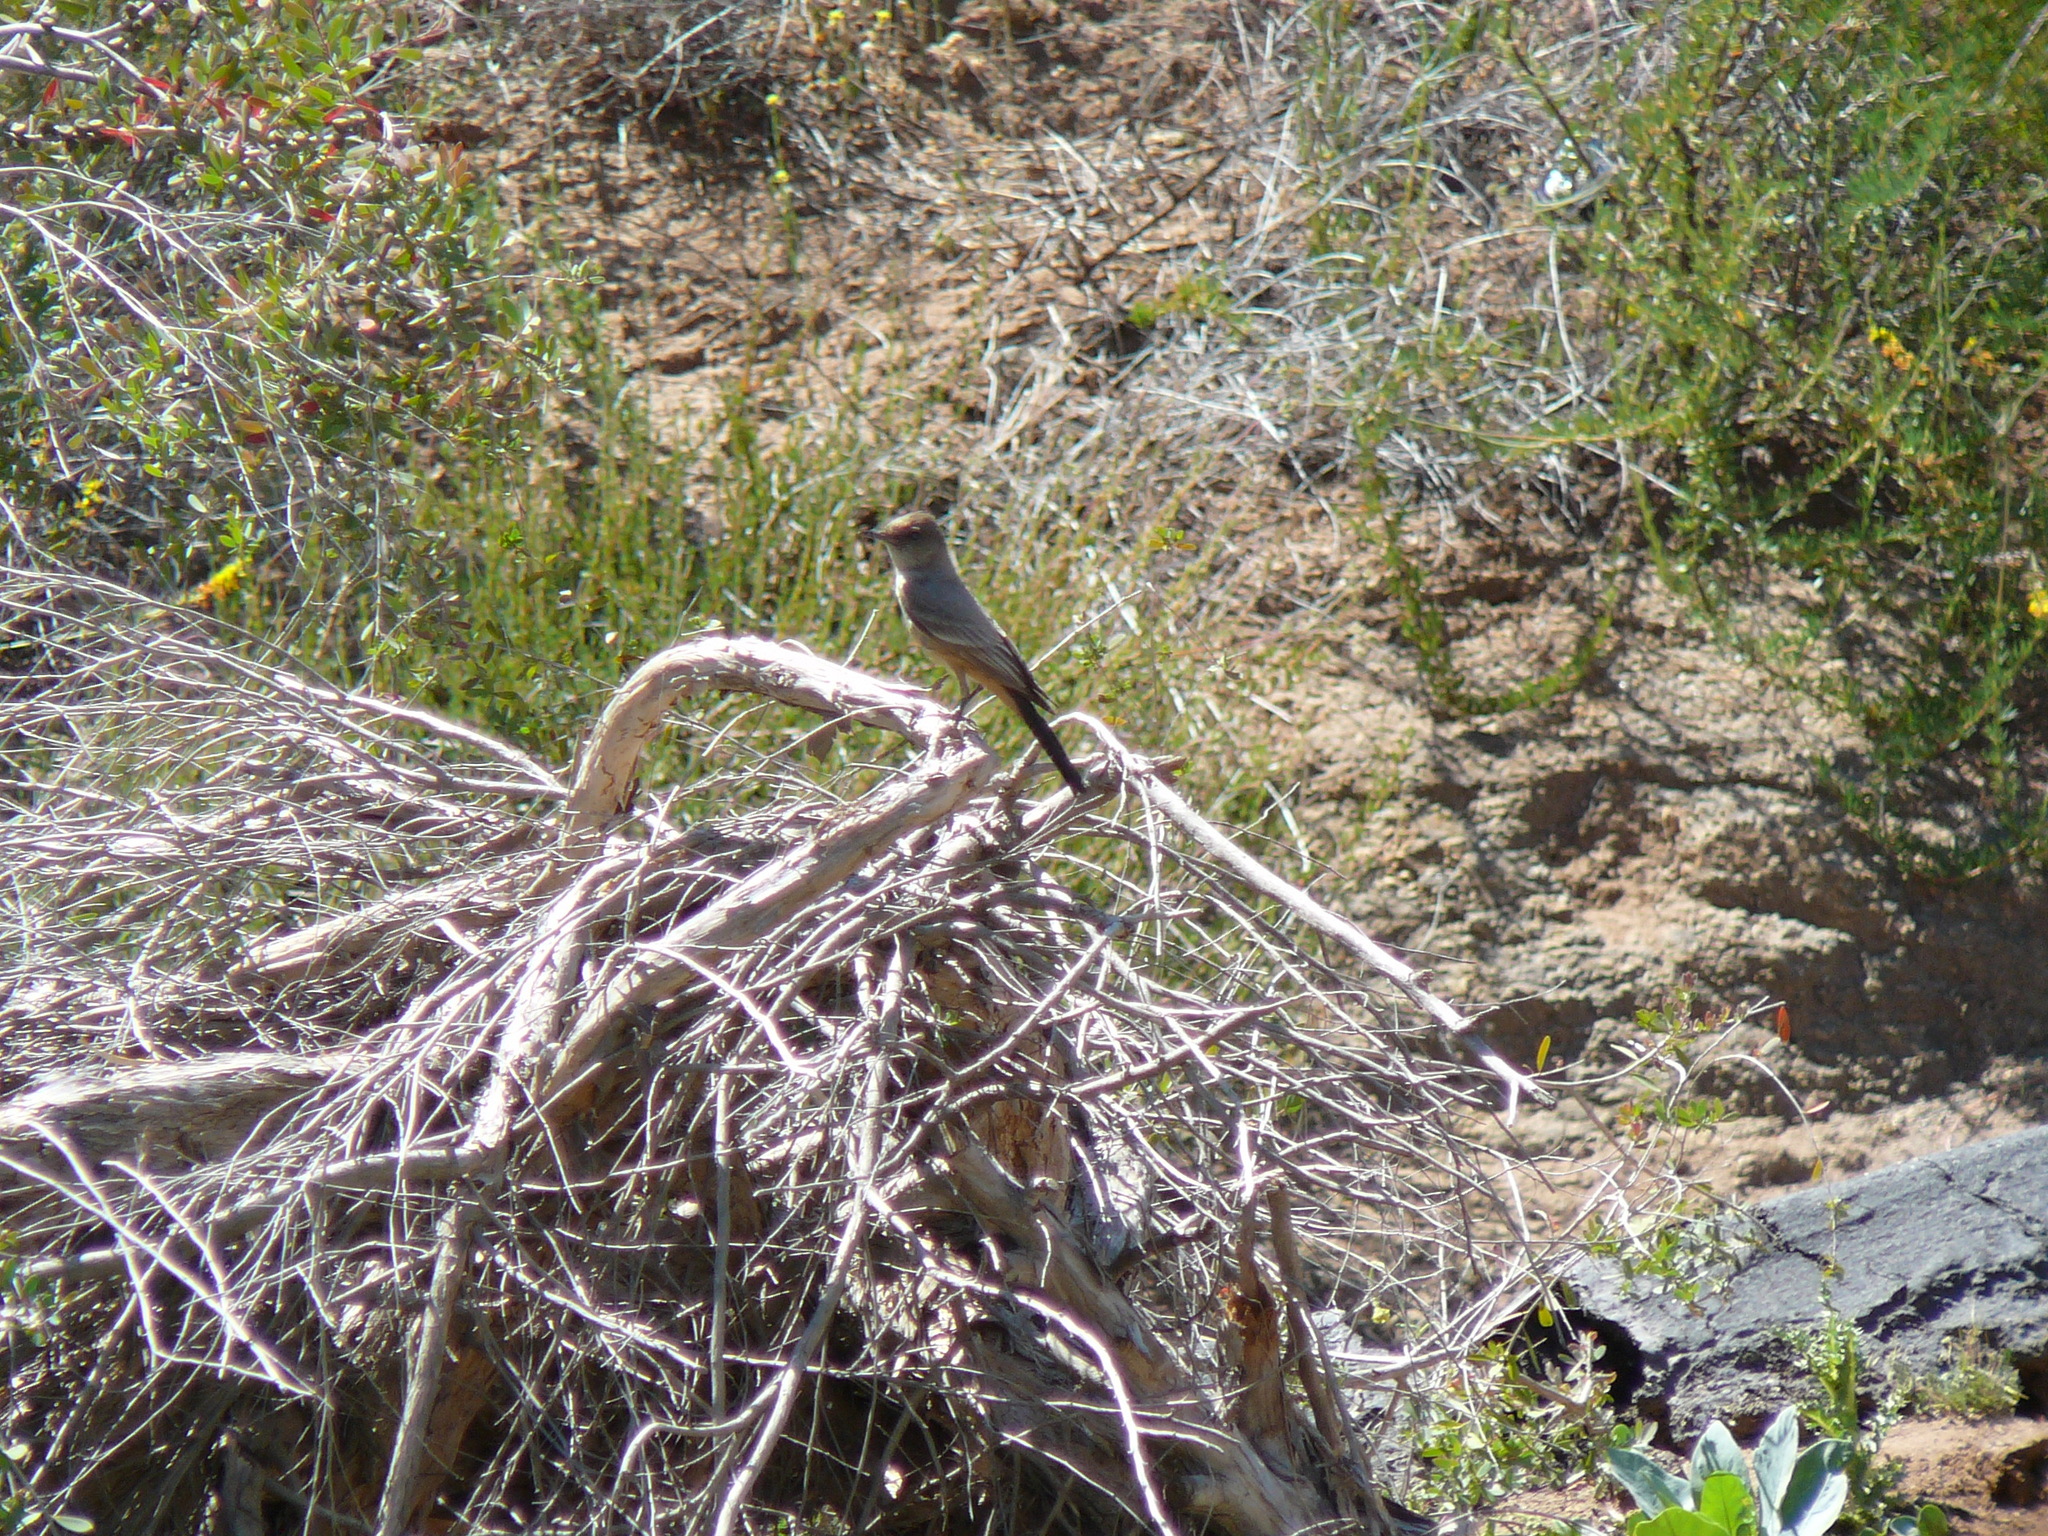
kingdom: Animalia
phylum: Chordata
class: Aves
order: Passeriformes
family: Tyrannidae
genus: Sayornis
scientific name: Sayornis saya
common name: Say's phoebe
